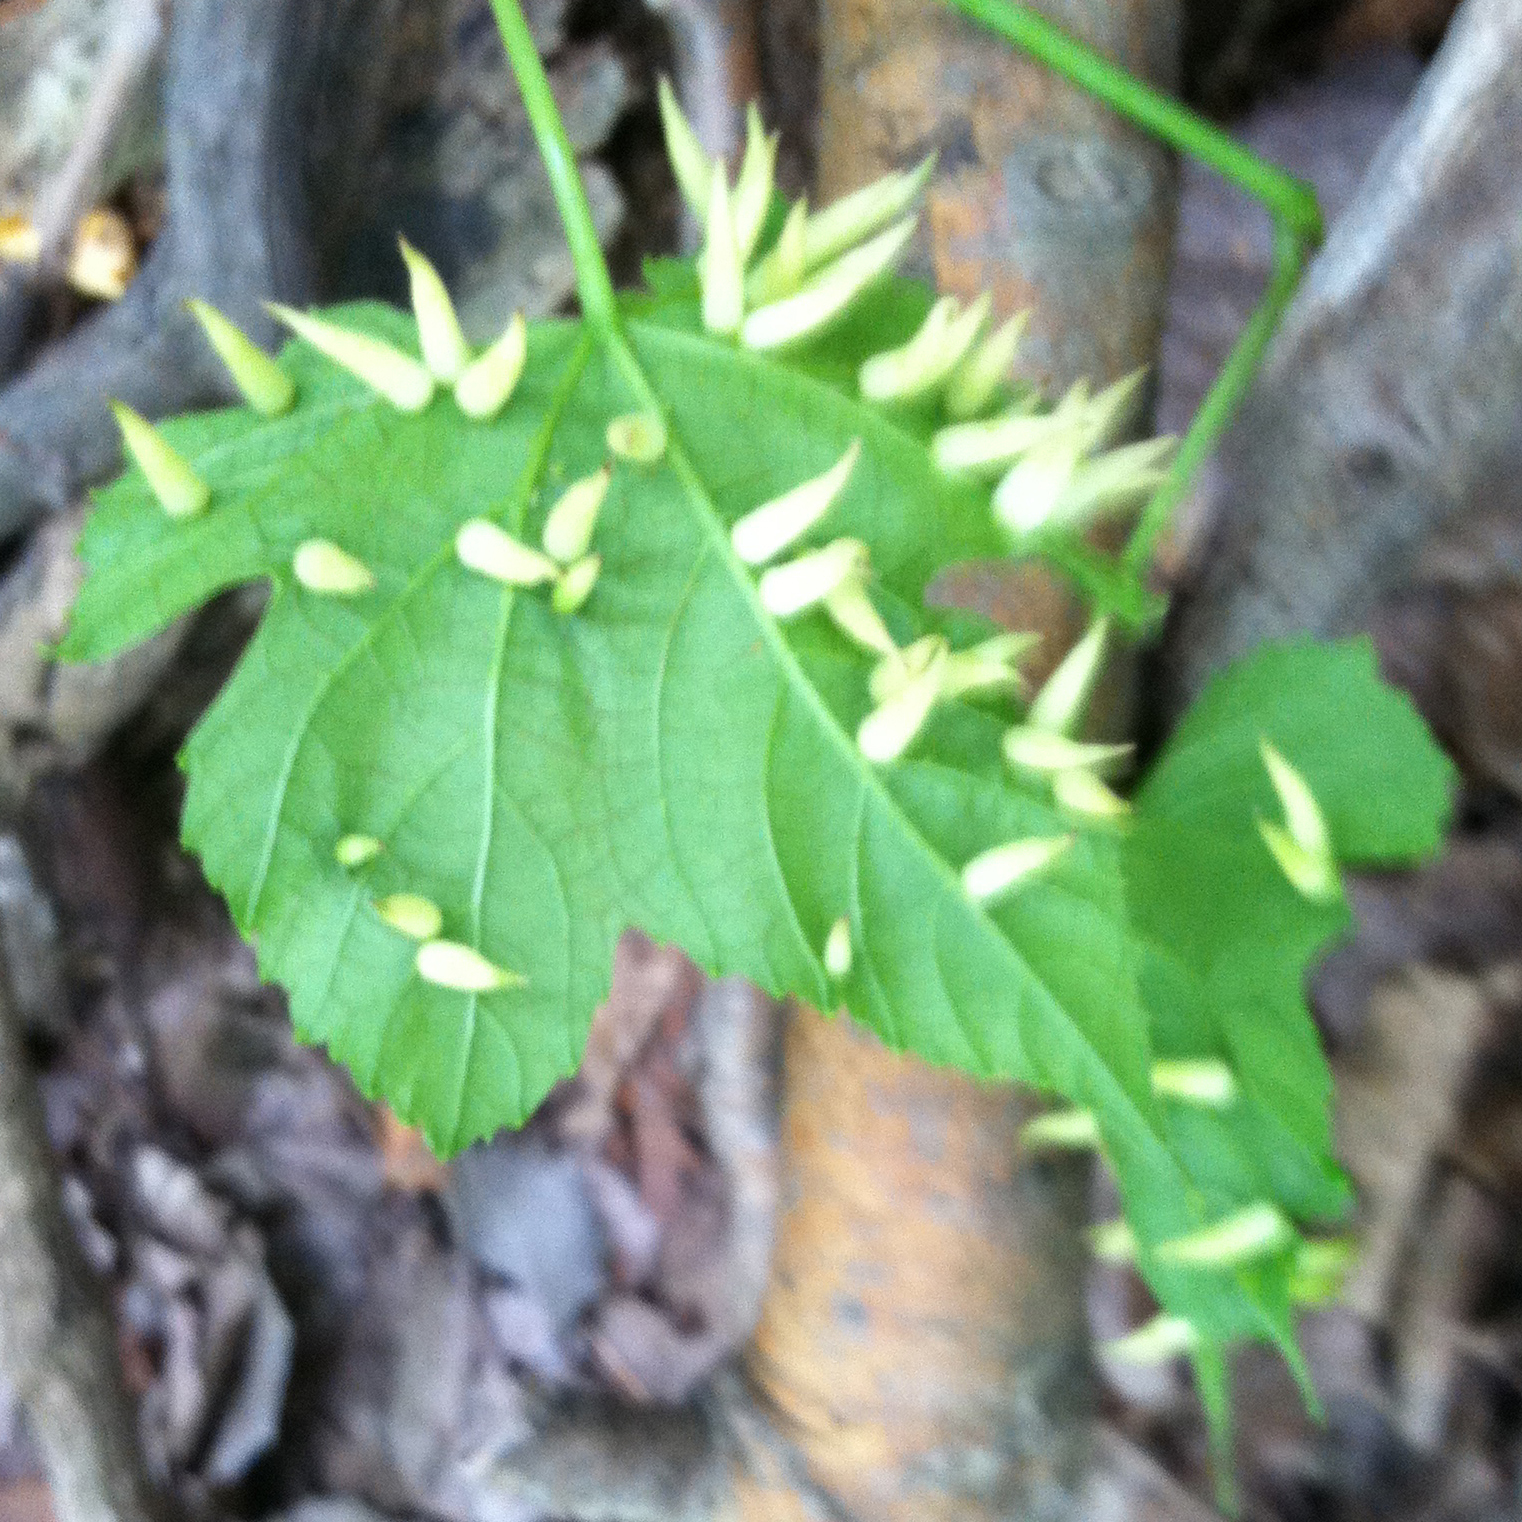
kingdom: Animalia
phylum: Arthropoda
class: Insecta
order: Diptera
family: Cecidomyiidae
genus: Ampelomyia
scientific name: Ampelomyia viticola
